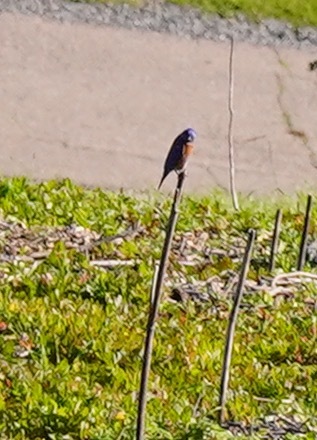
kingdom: Animalia
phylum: Chordata
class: Aves
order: Passeriformes
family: Turdidae
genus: Sialia
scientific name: Sialia mexicana
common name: Western bluebird
